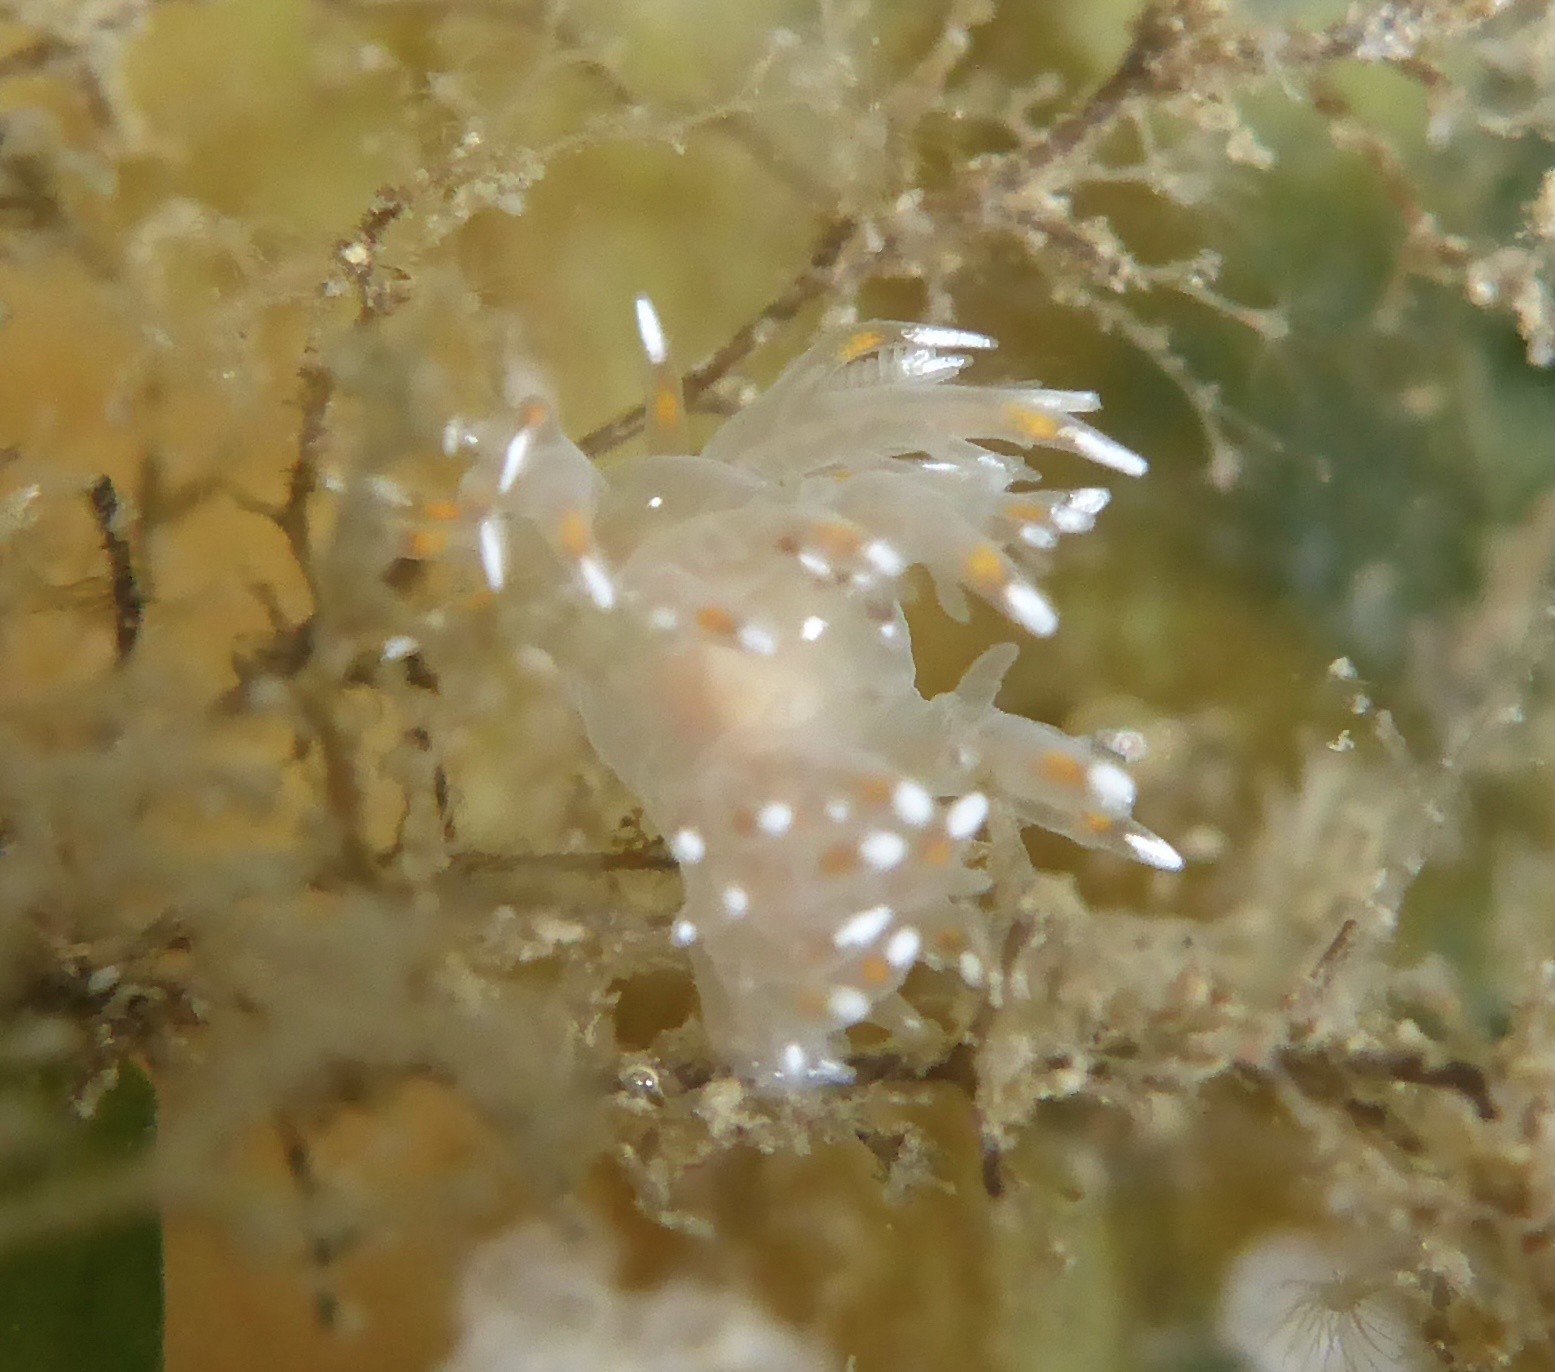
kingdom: Animalia
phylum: Mollusca
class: Gastropoda
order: Nudibranchia
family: Dendronotidae
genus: Dendronotus
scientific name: Dendronotus iris
